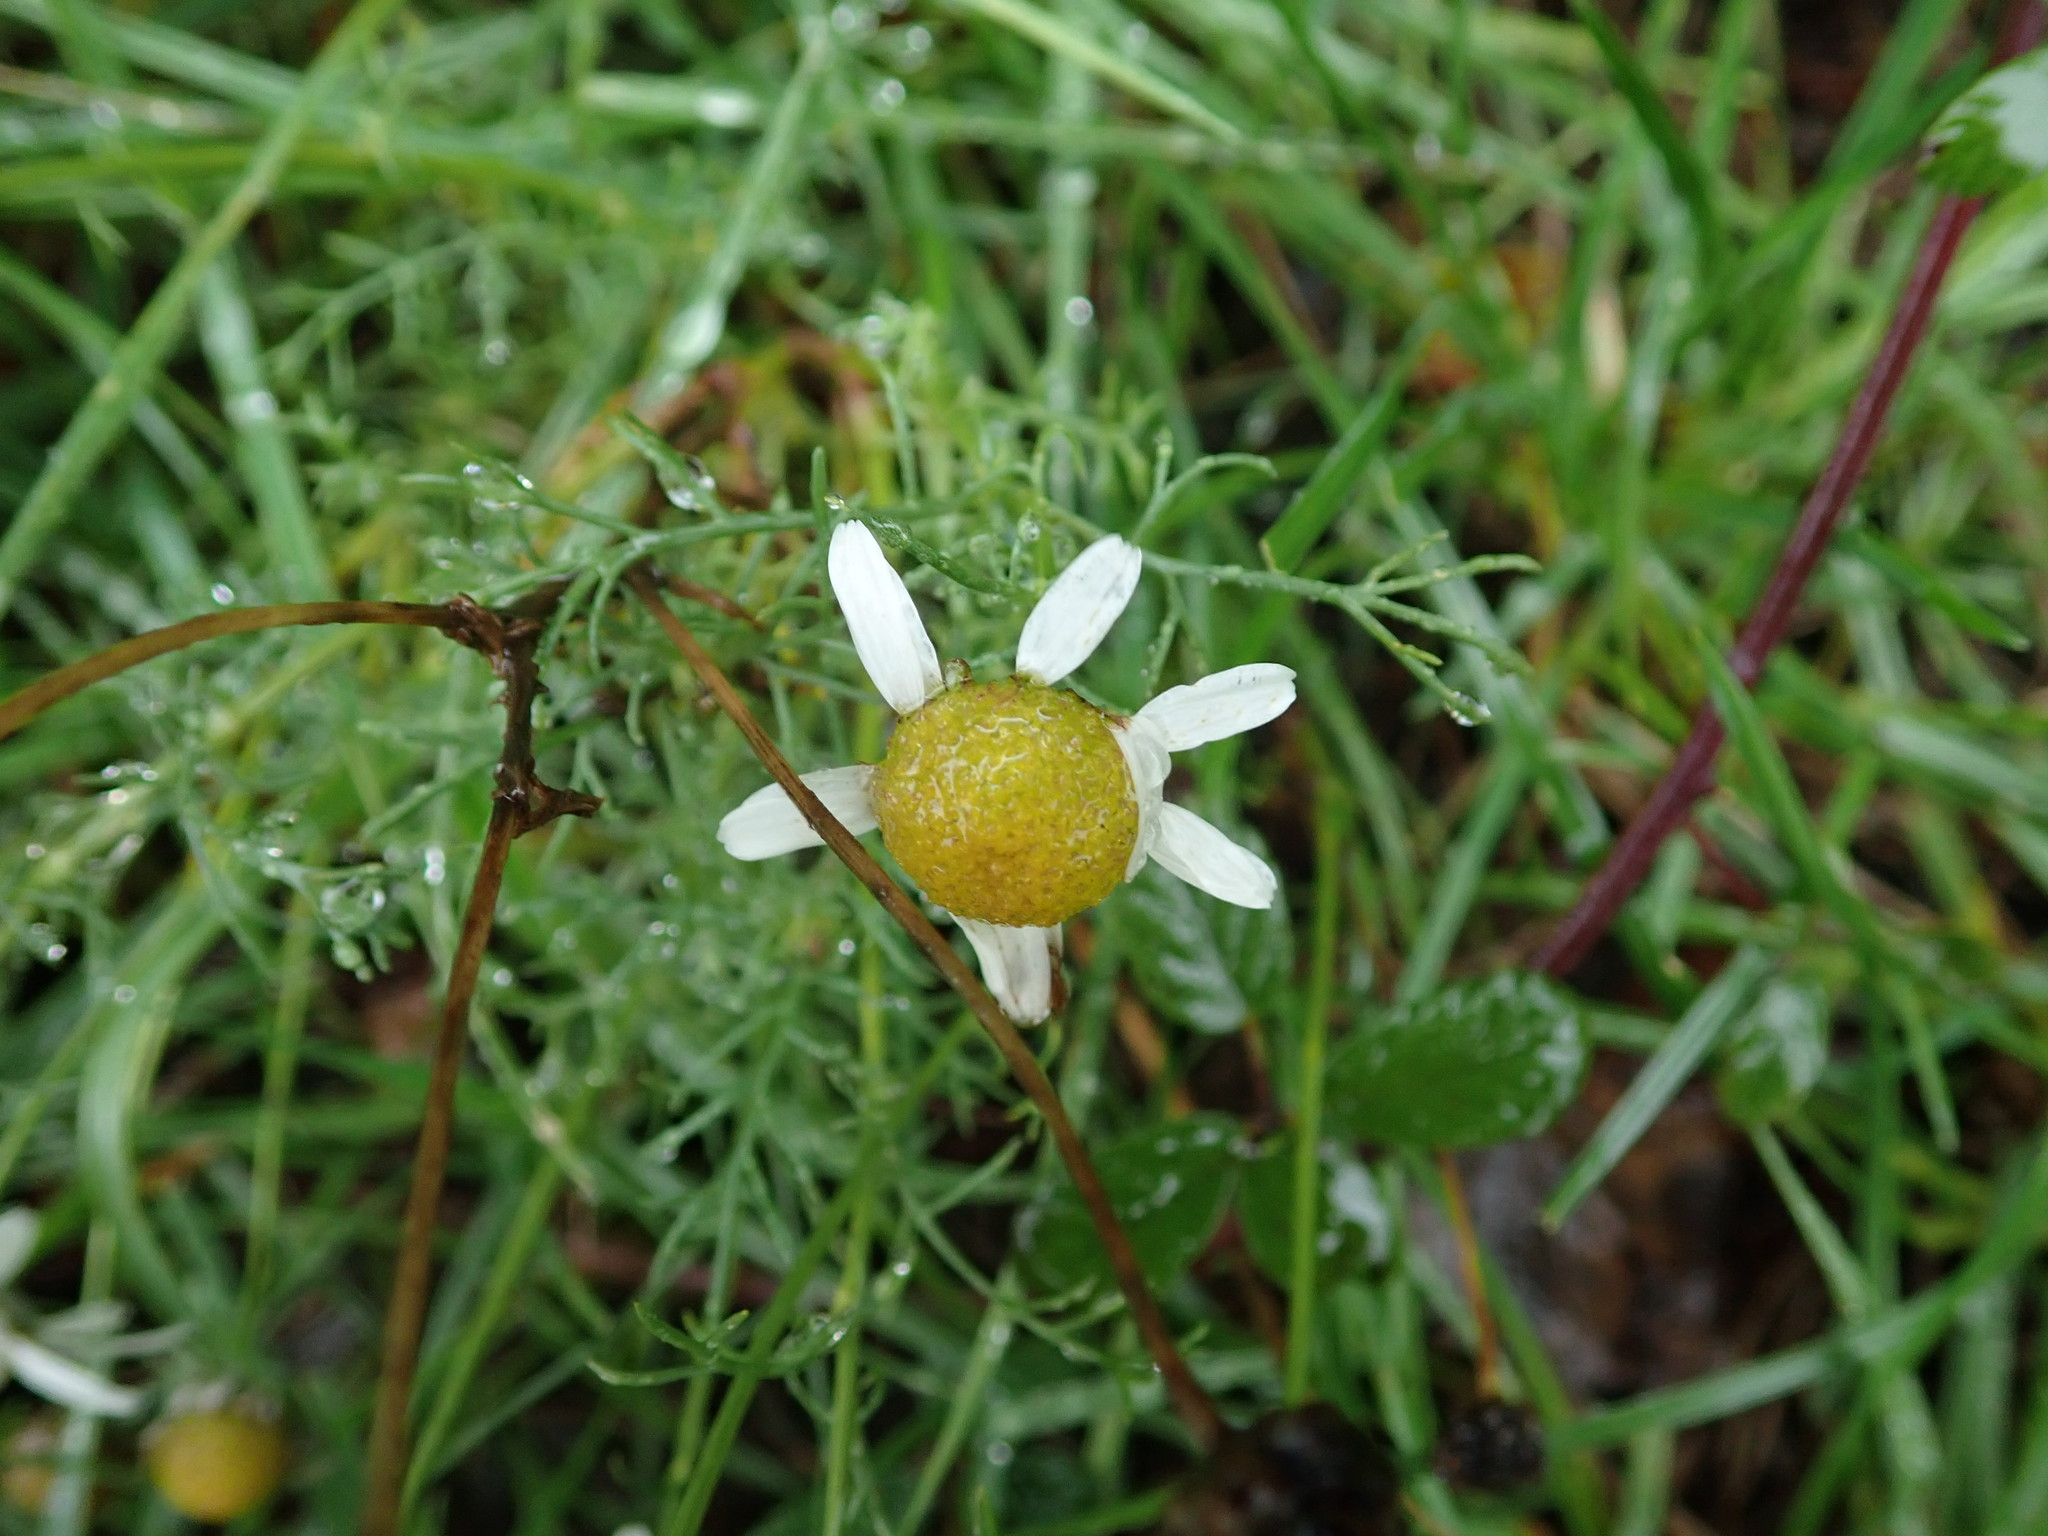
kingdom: Plantae
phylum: Tracheophyta
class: Magnoliopsida
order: Asterales
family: Asteraceae
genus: Tripleurospermum
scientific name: Tripleurospermum inodorum
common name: Scentless mayweed
